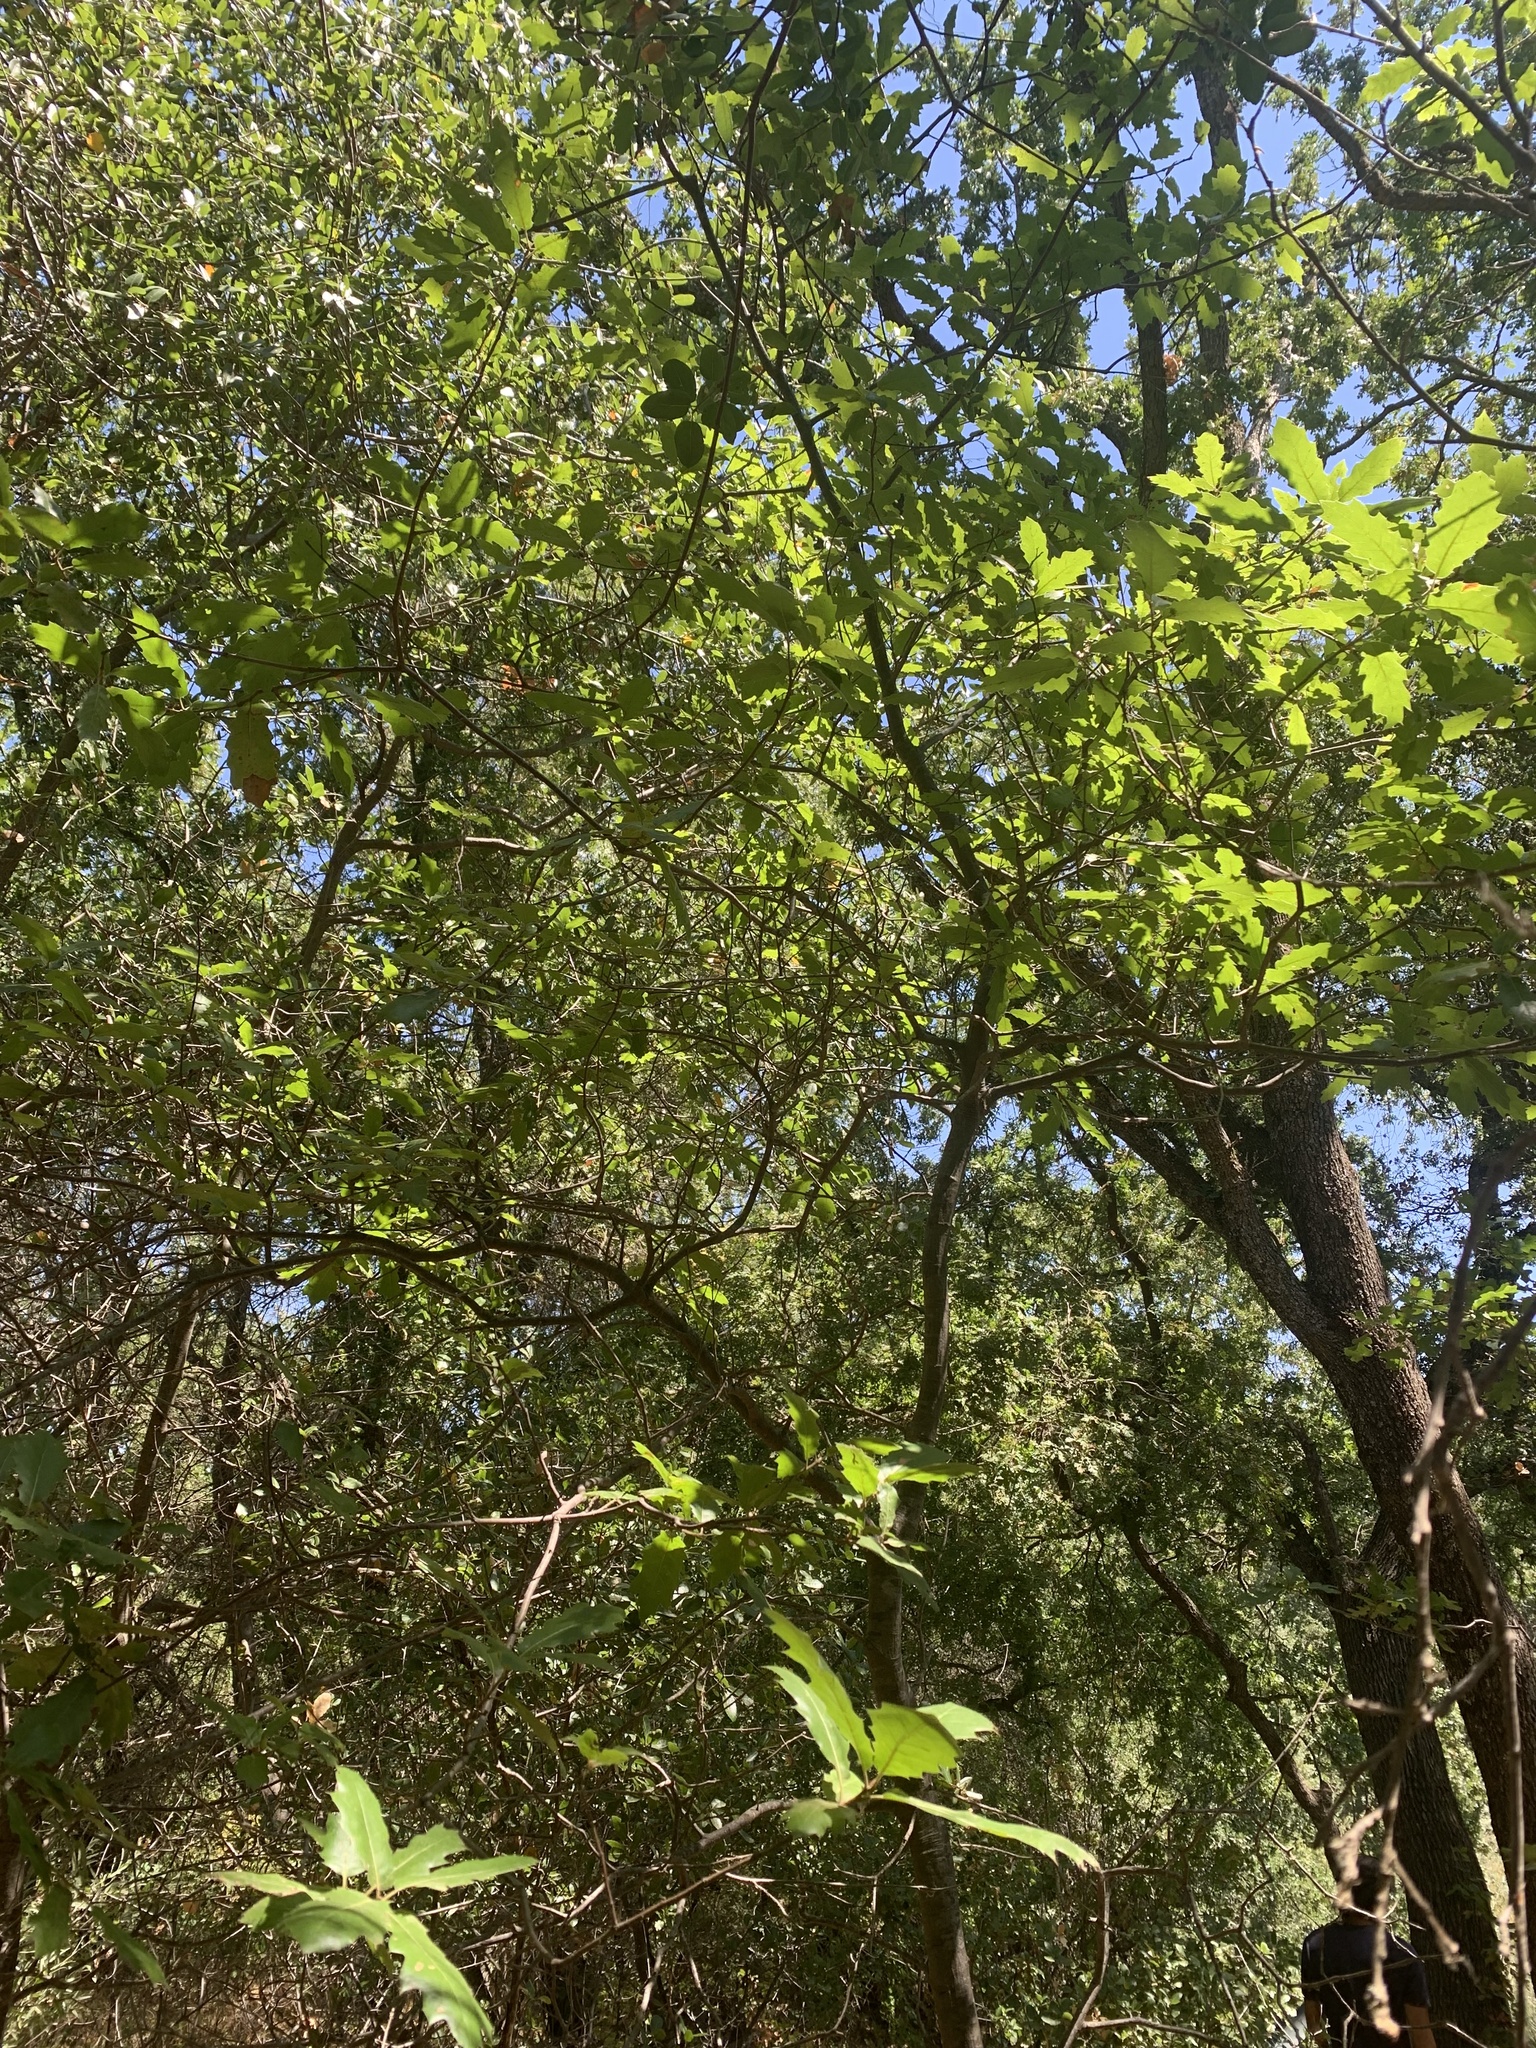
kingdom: Plantae
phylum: Tracheophyta
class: Magnoliopsida
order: Fagales
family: Fagaceae
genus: Quercus
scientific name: Quercus morehus
